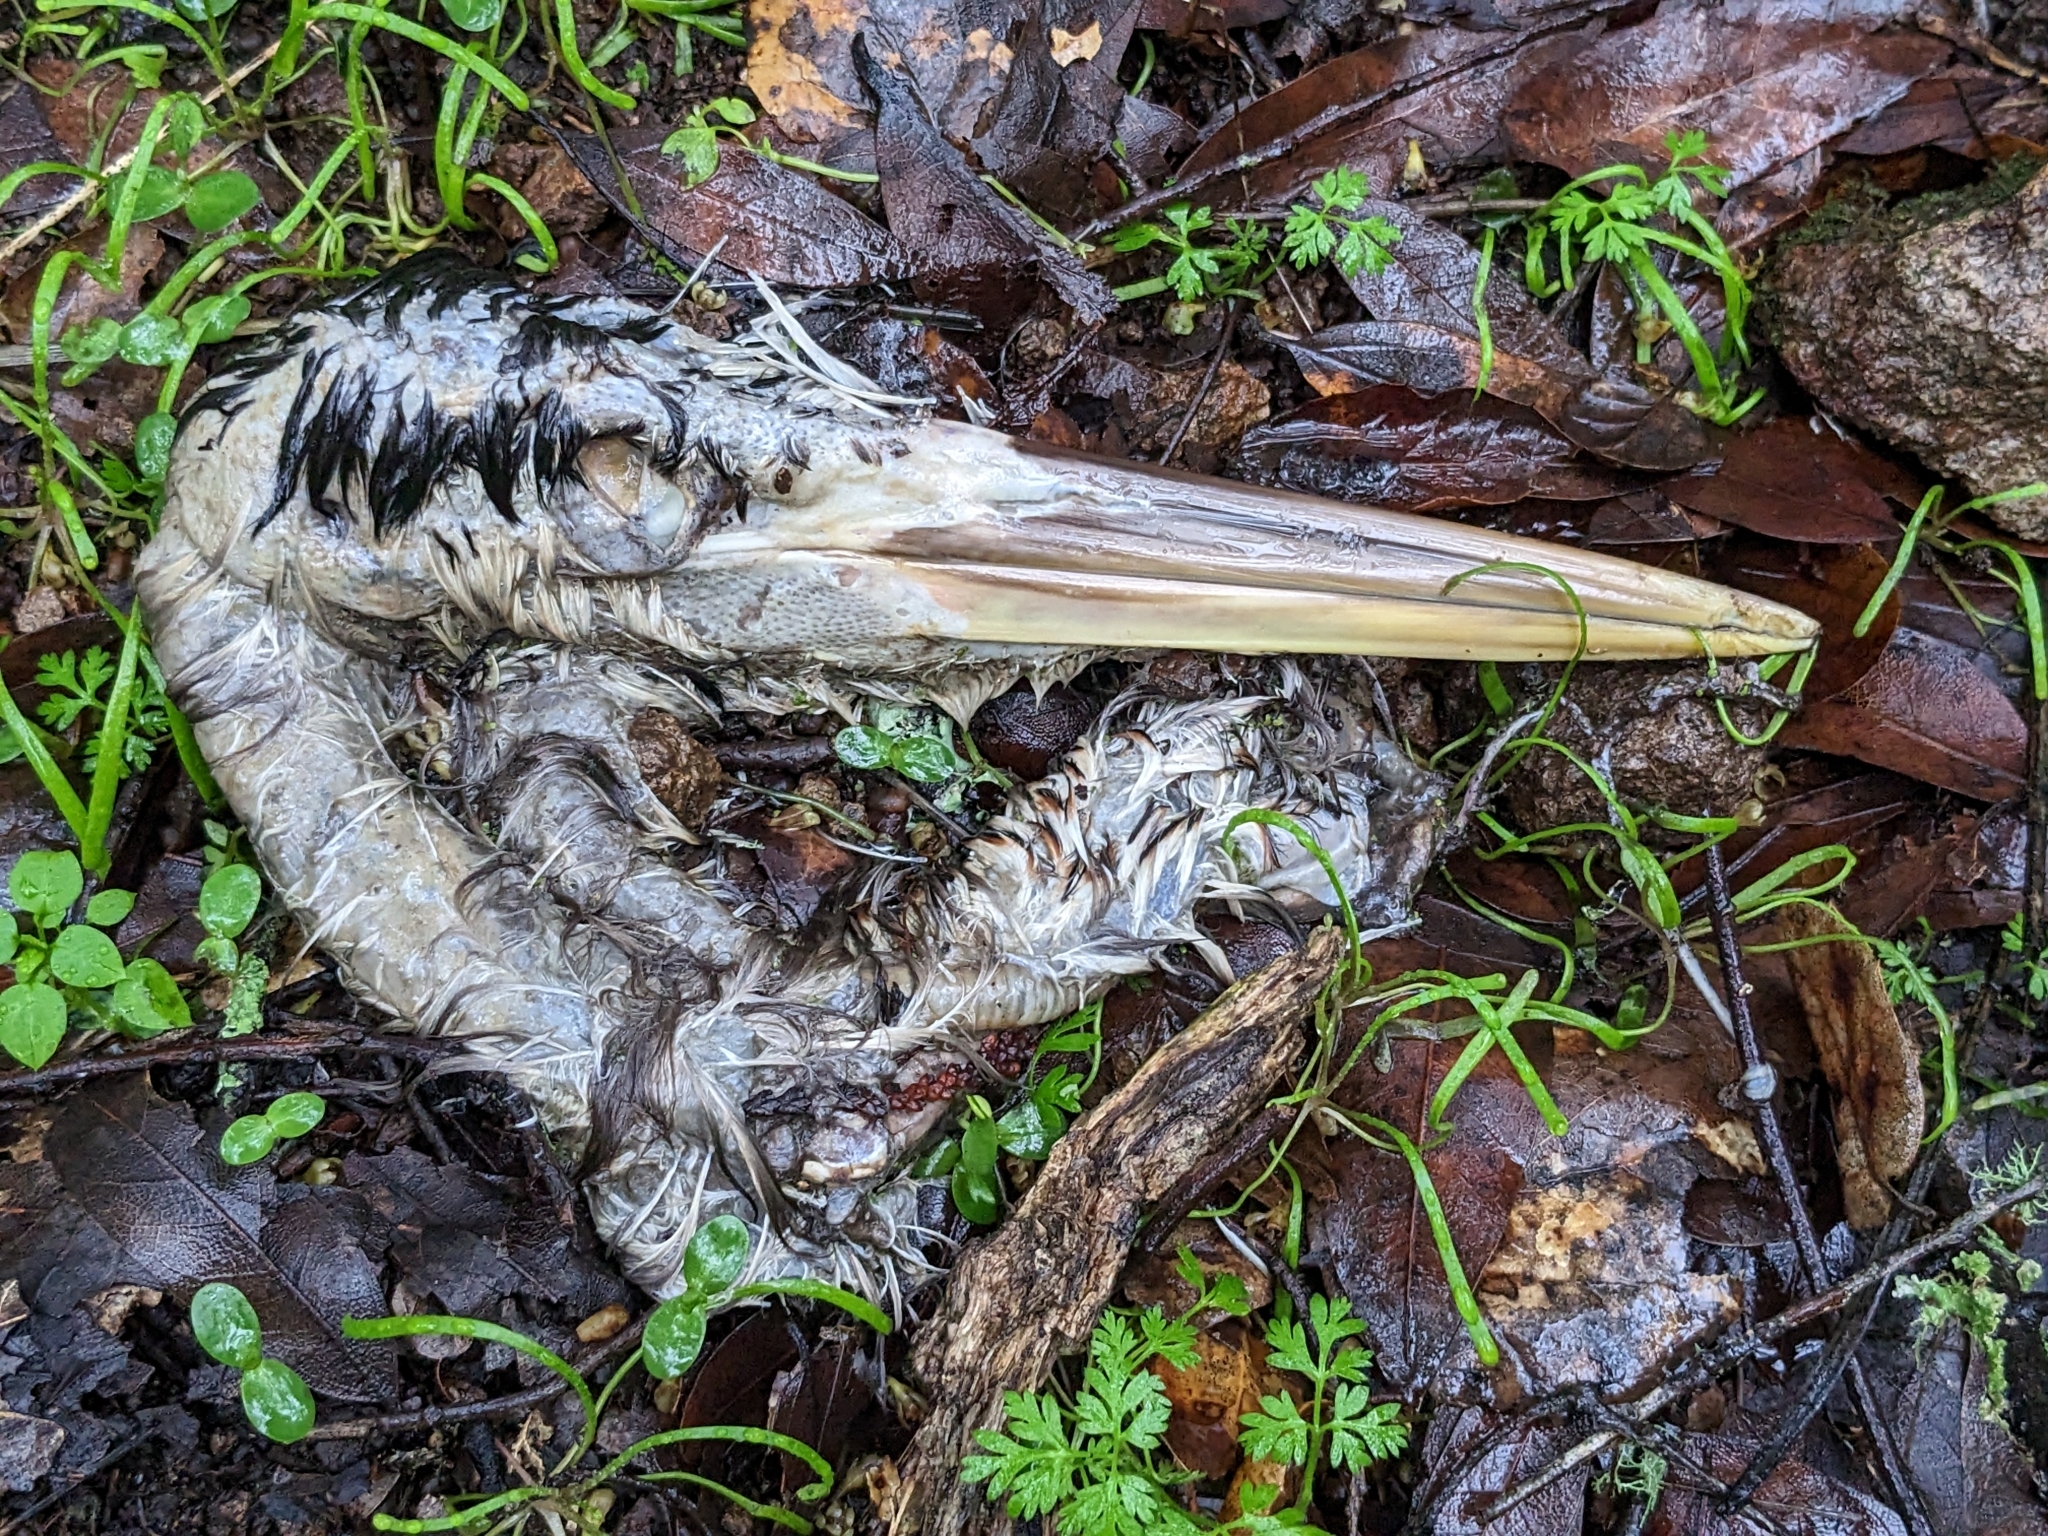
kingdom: Animalia
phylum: Chordata
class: Aves
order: Pelecaniformes
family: Ardeidae
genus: Ardea
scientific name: Ardea herodias
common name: Great blue heron
